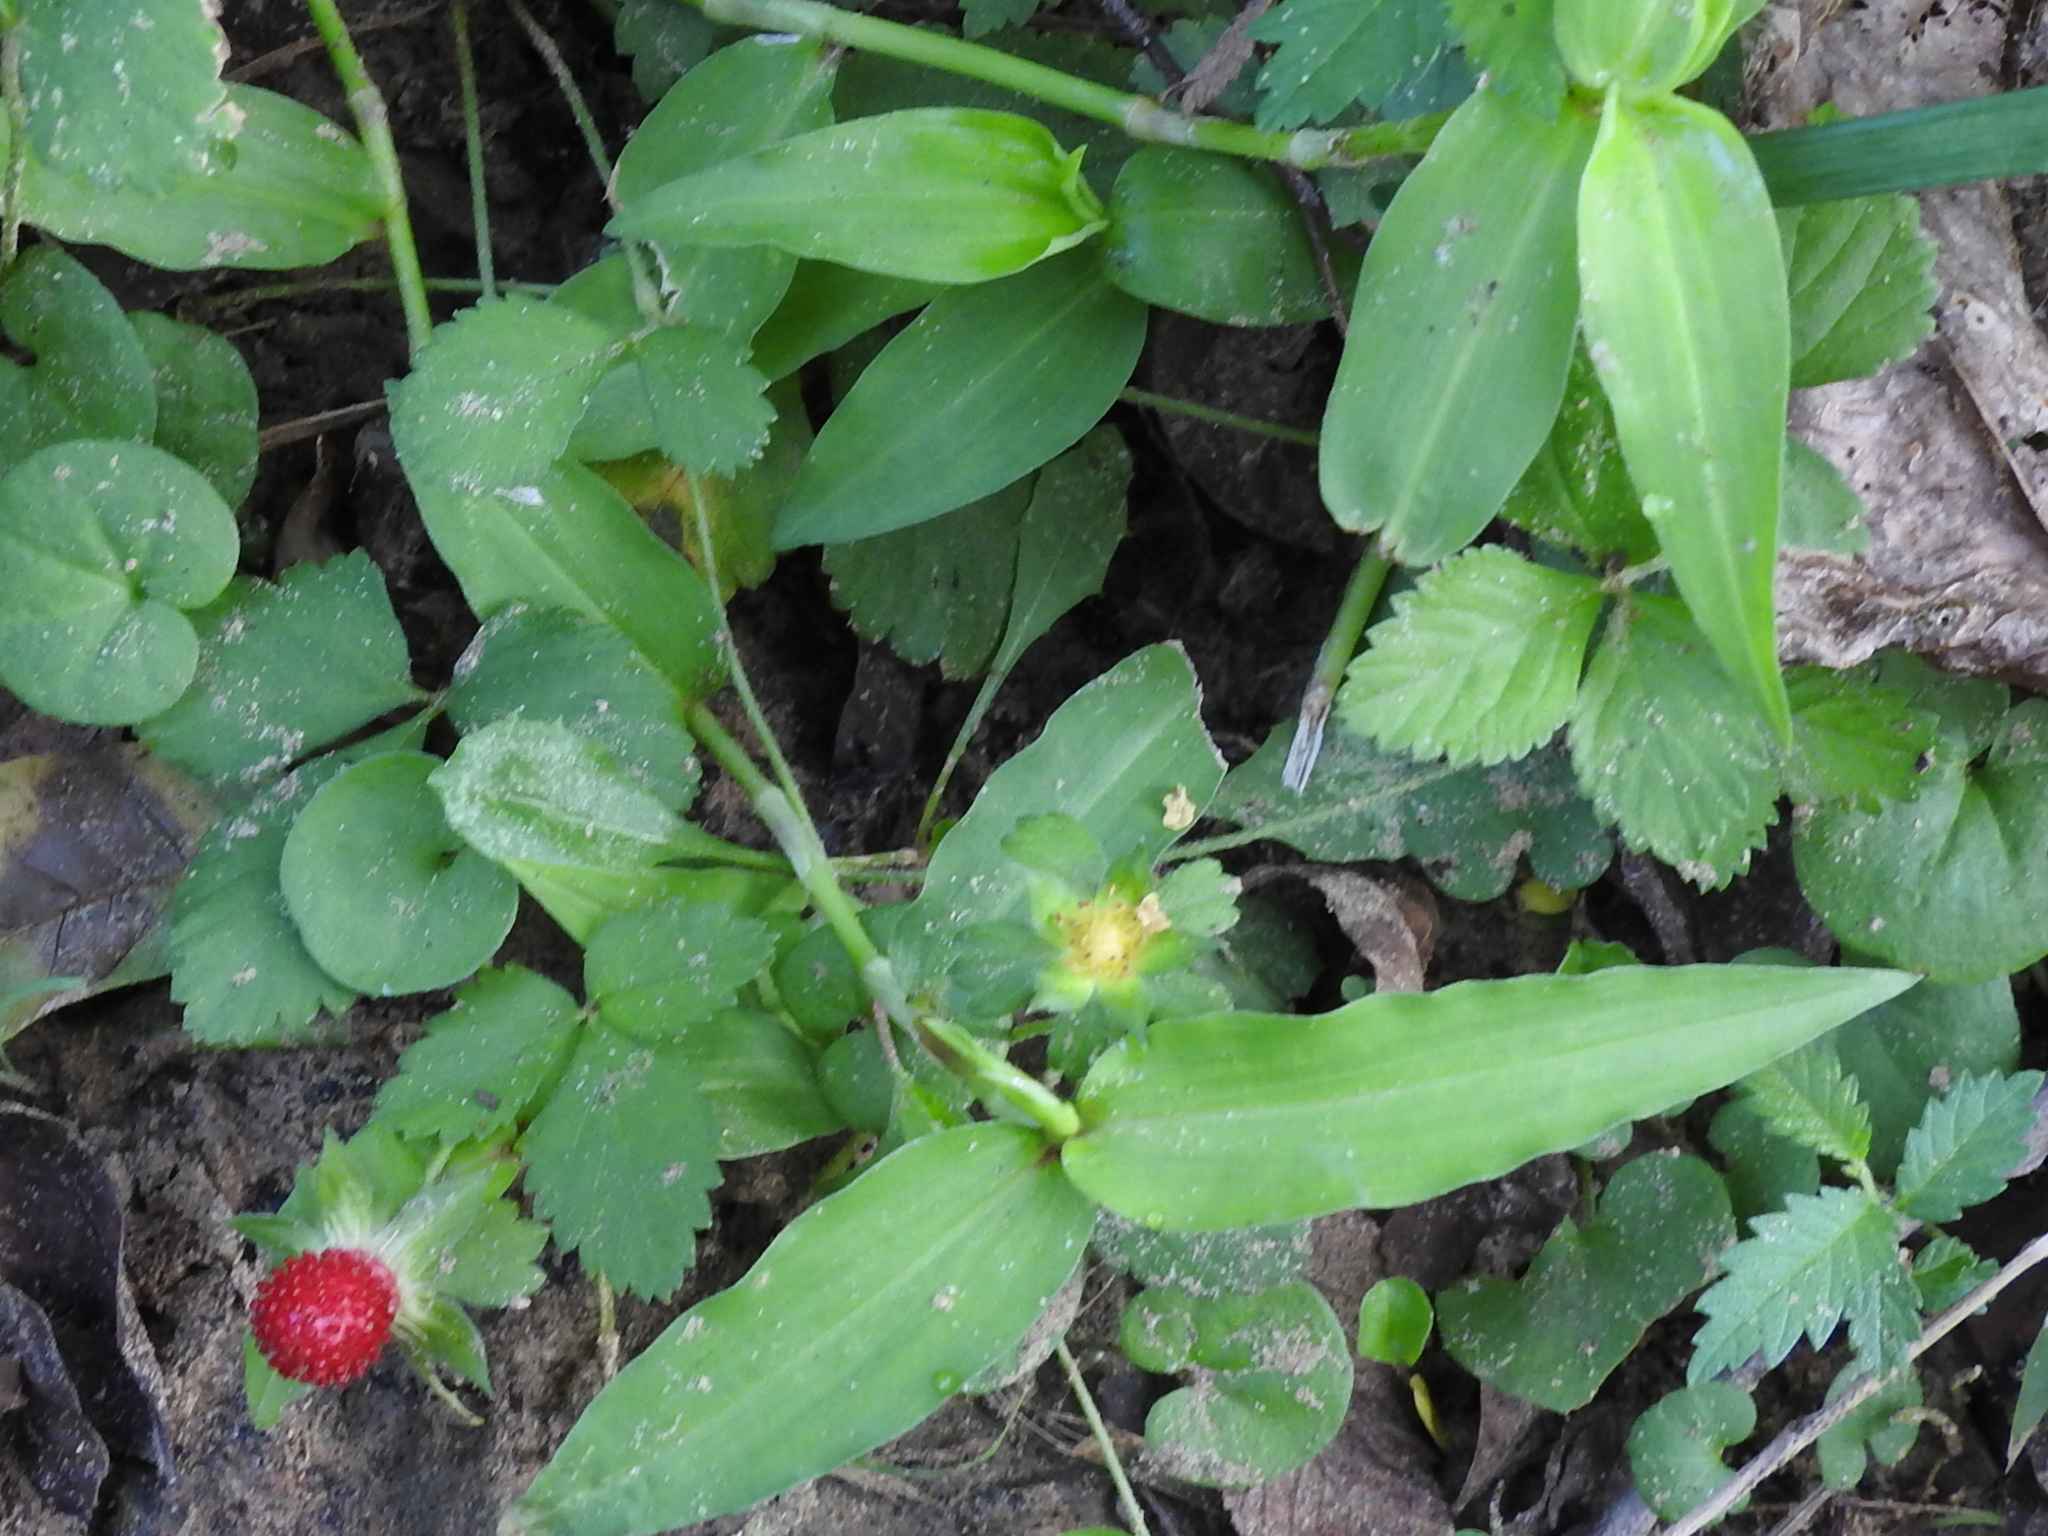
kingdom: Plantae
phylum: Tracheophyta
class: Magnoliopsida
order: Rosales
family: Rosaceae
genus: Potentilla
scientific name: Potentilla indica
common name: Yellow-flowered strawberry
